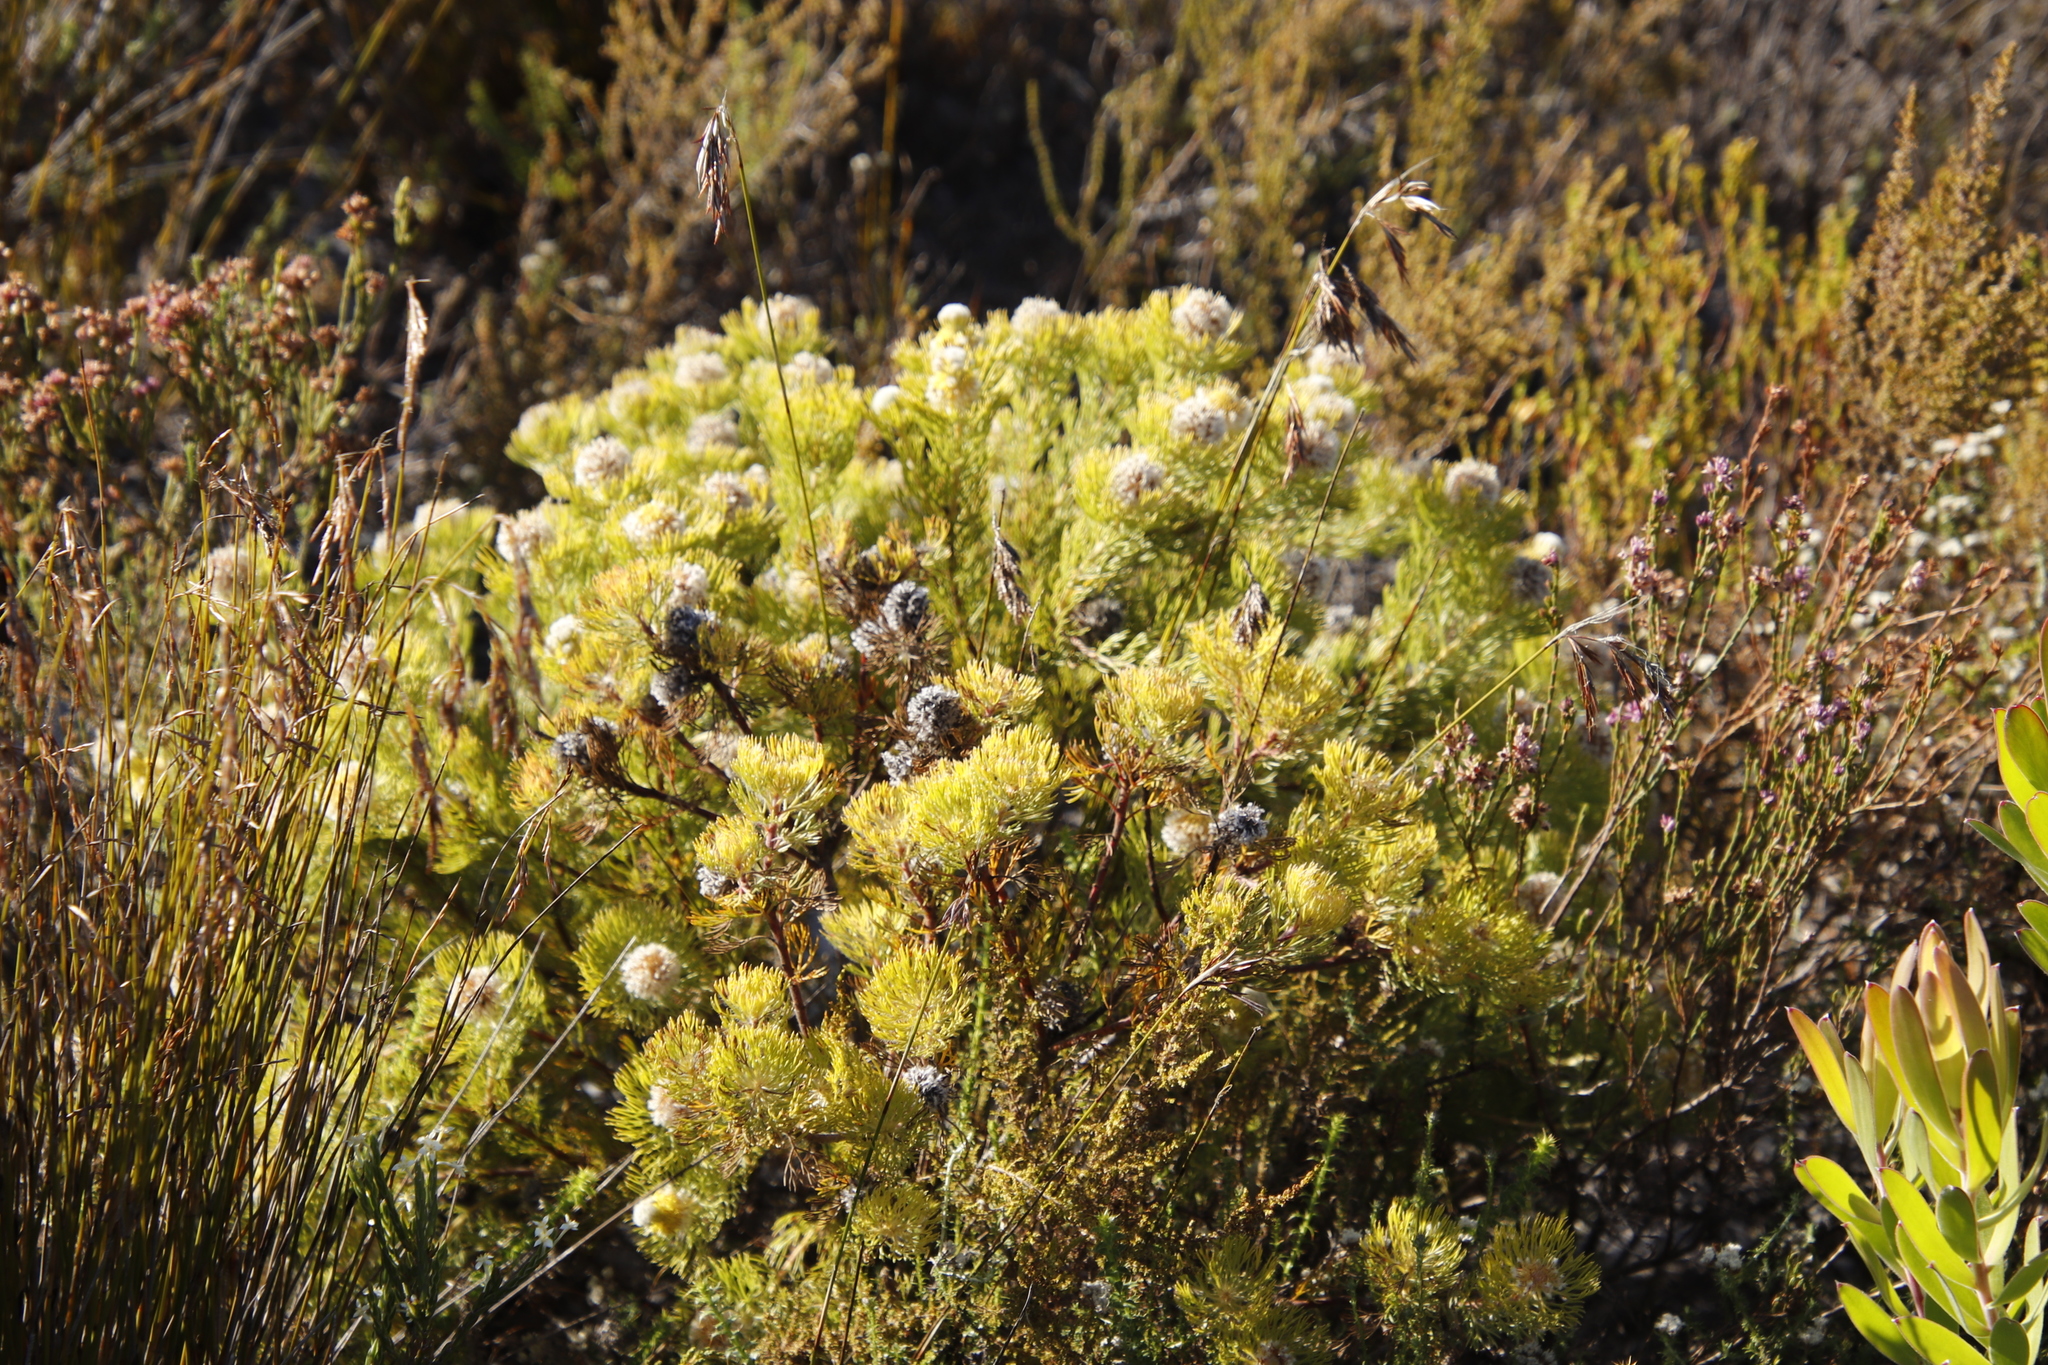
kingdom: Plantae
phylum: Tracheophyta
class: Magnoliopsida
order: Proteales
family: Proteaceae
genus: Serruria
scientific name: Serruria villosa
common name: Golden spiderhead
